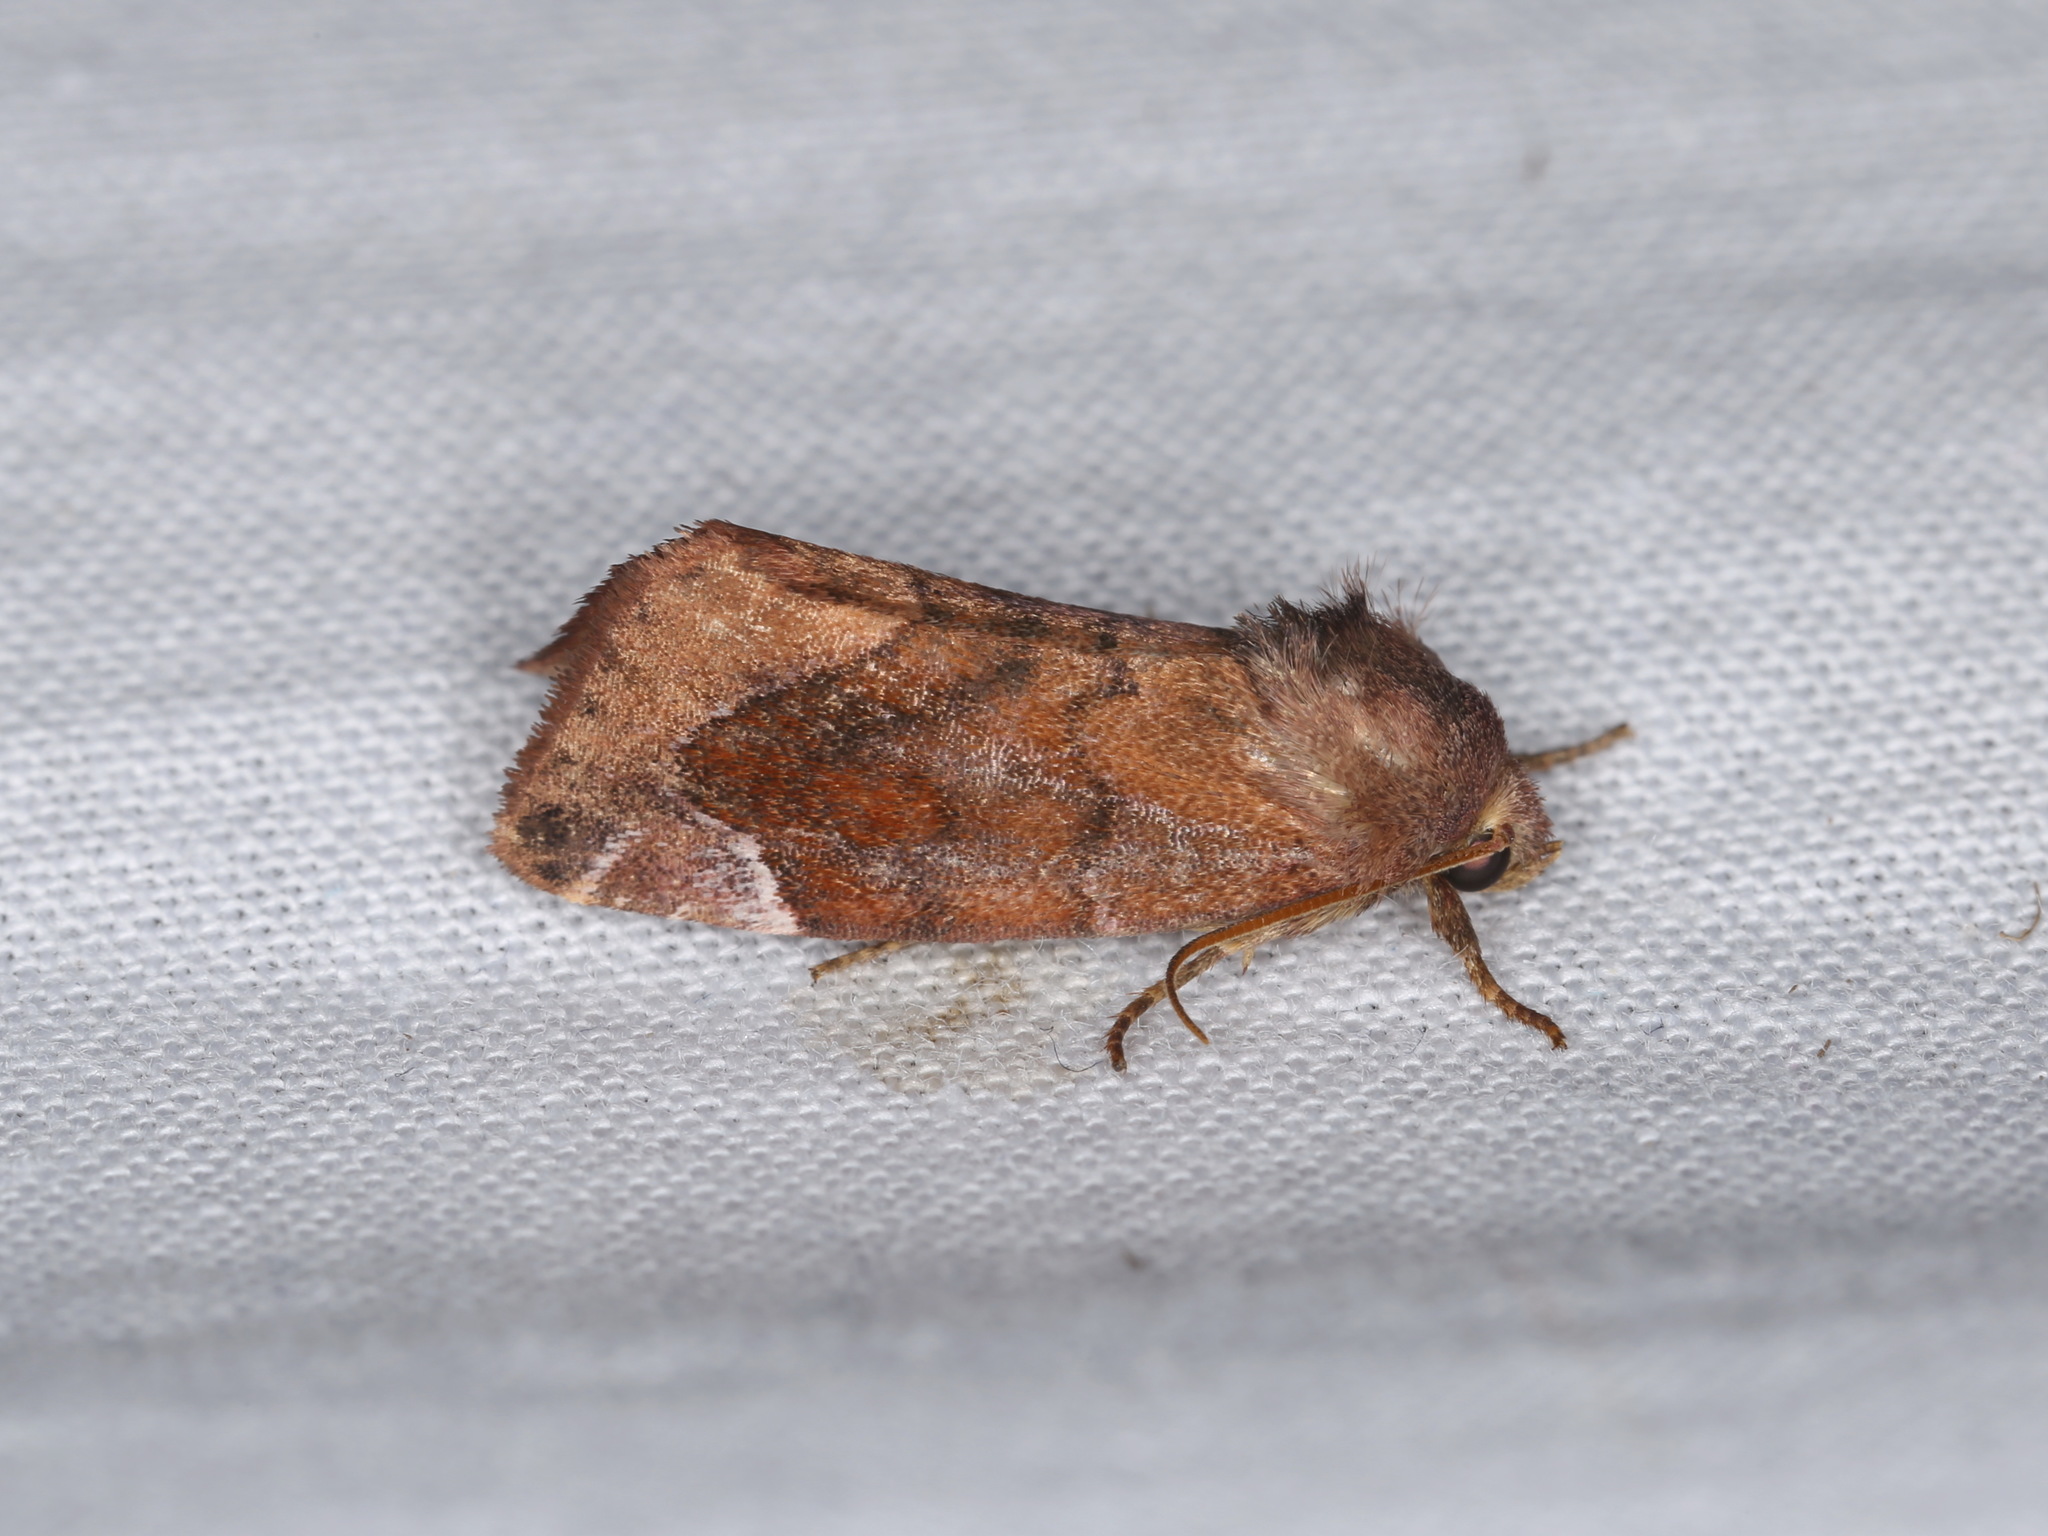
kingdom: Animalia
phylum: Arthropoda
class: Insecta
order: Lepidoptera
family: Noctuidae
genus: Cosmia
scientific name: Cosmia pyralina
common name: Lunar-spotted pinion
